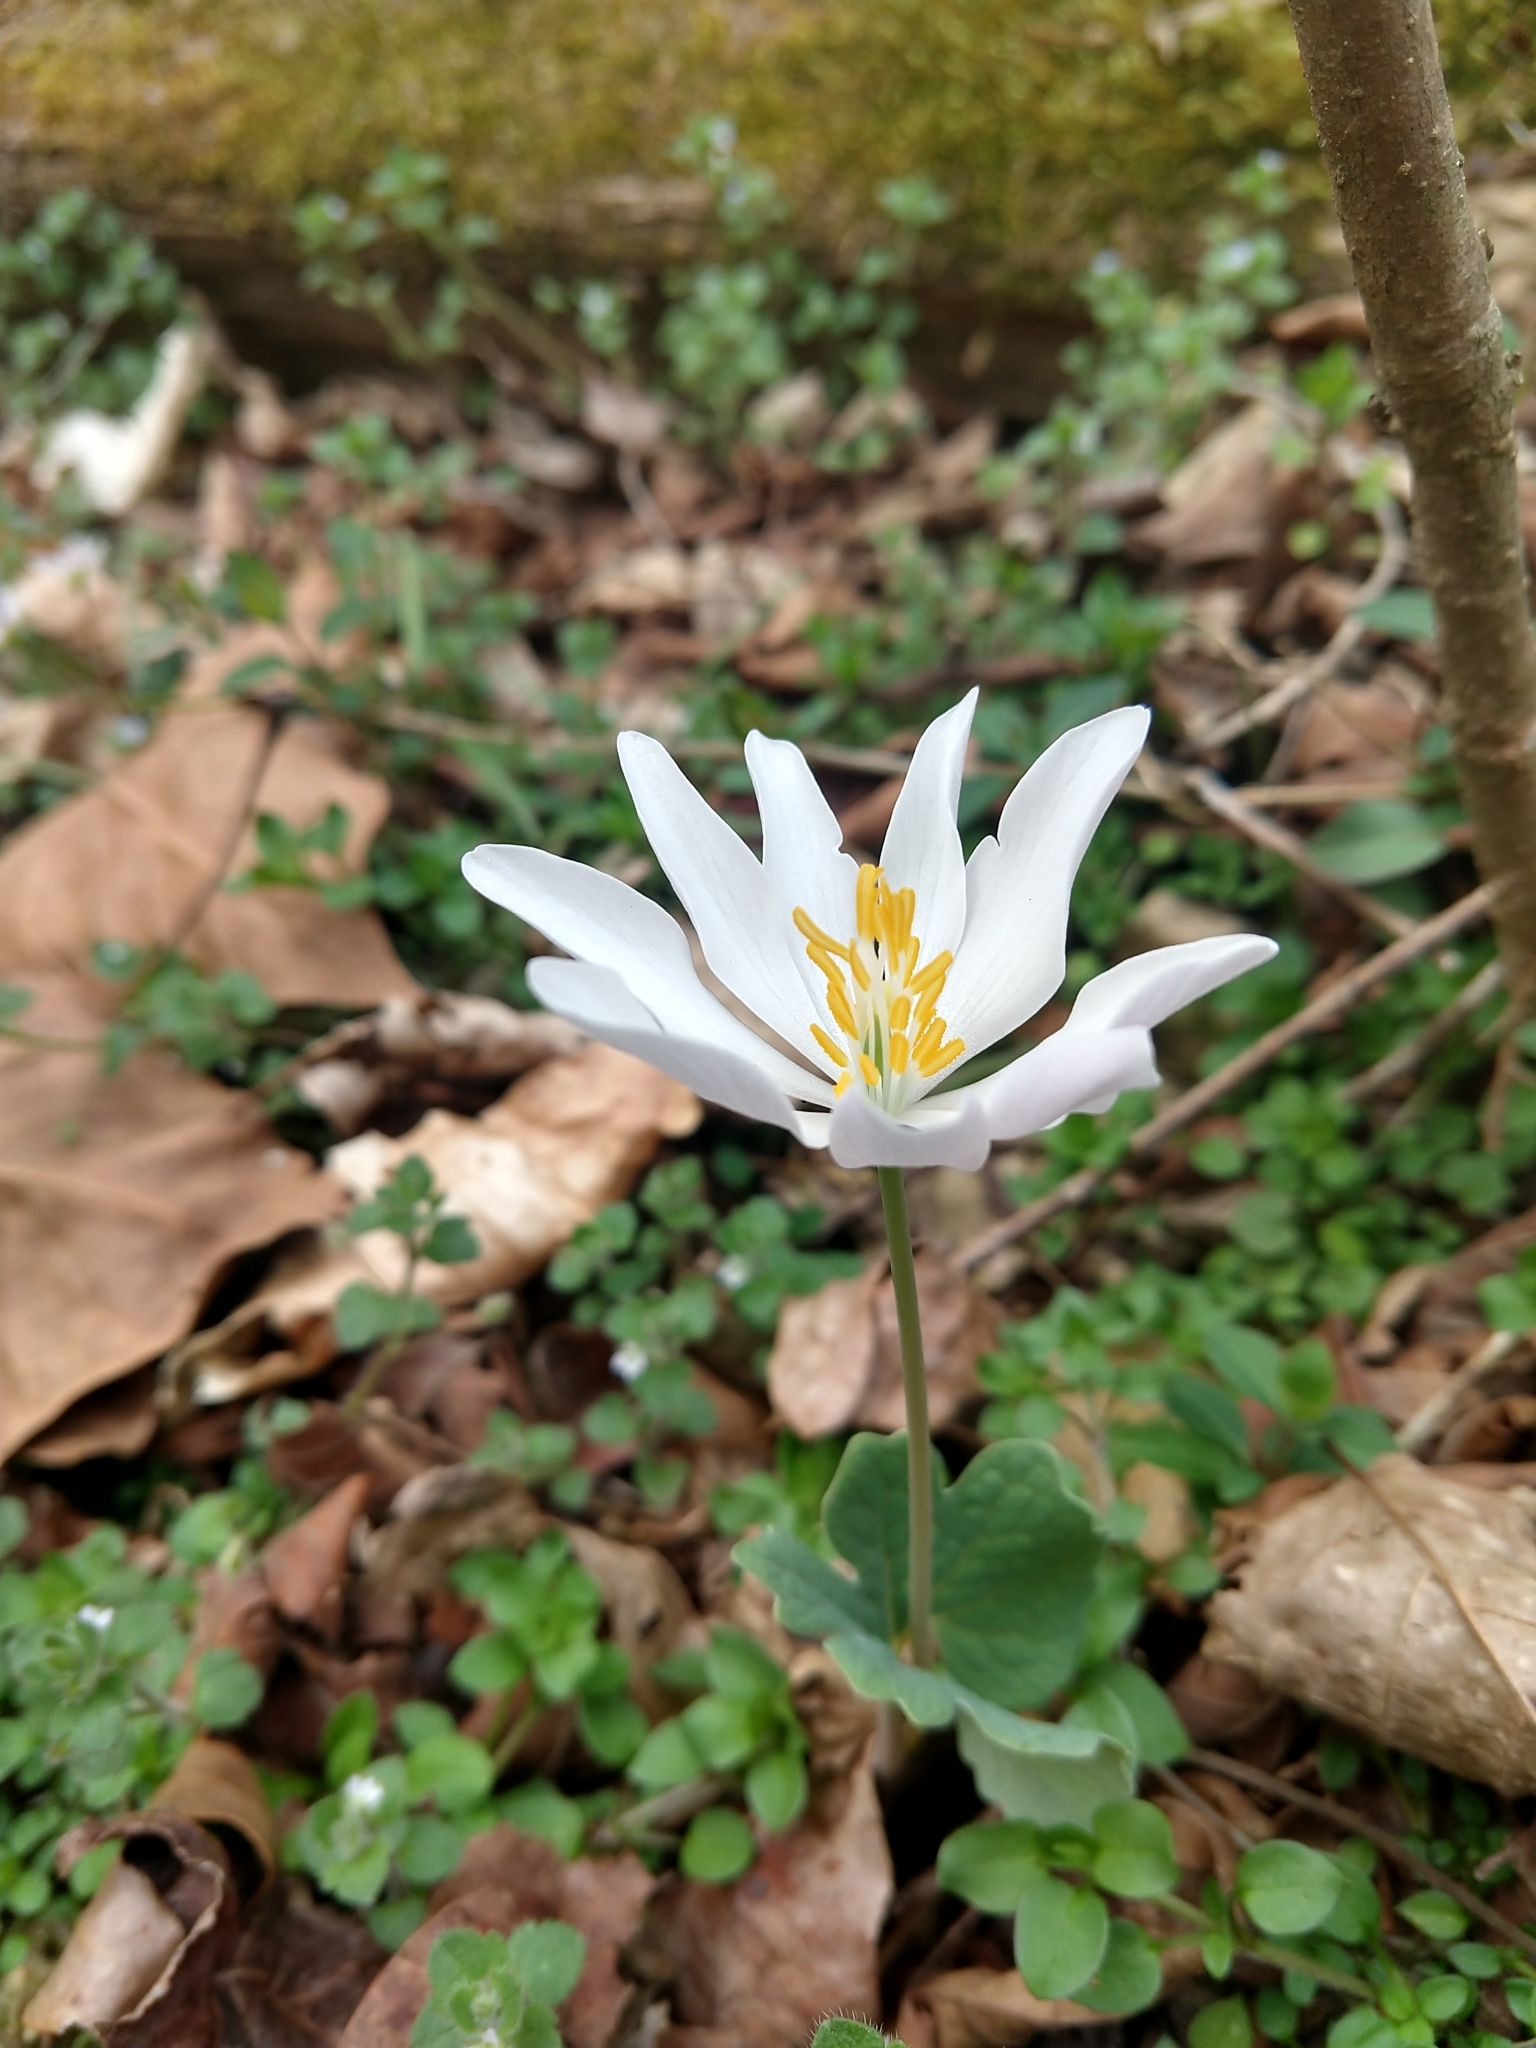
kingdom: Plantae
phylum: Tracheophyta
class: Magnoliopsida
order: Ranunculales
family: Papaveraceae
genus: Sanguinaria
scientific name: Sanguinaria canadensis
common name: Bloodroot
